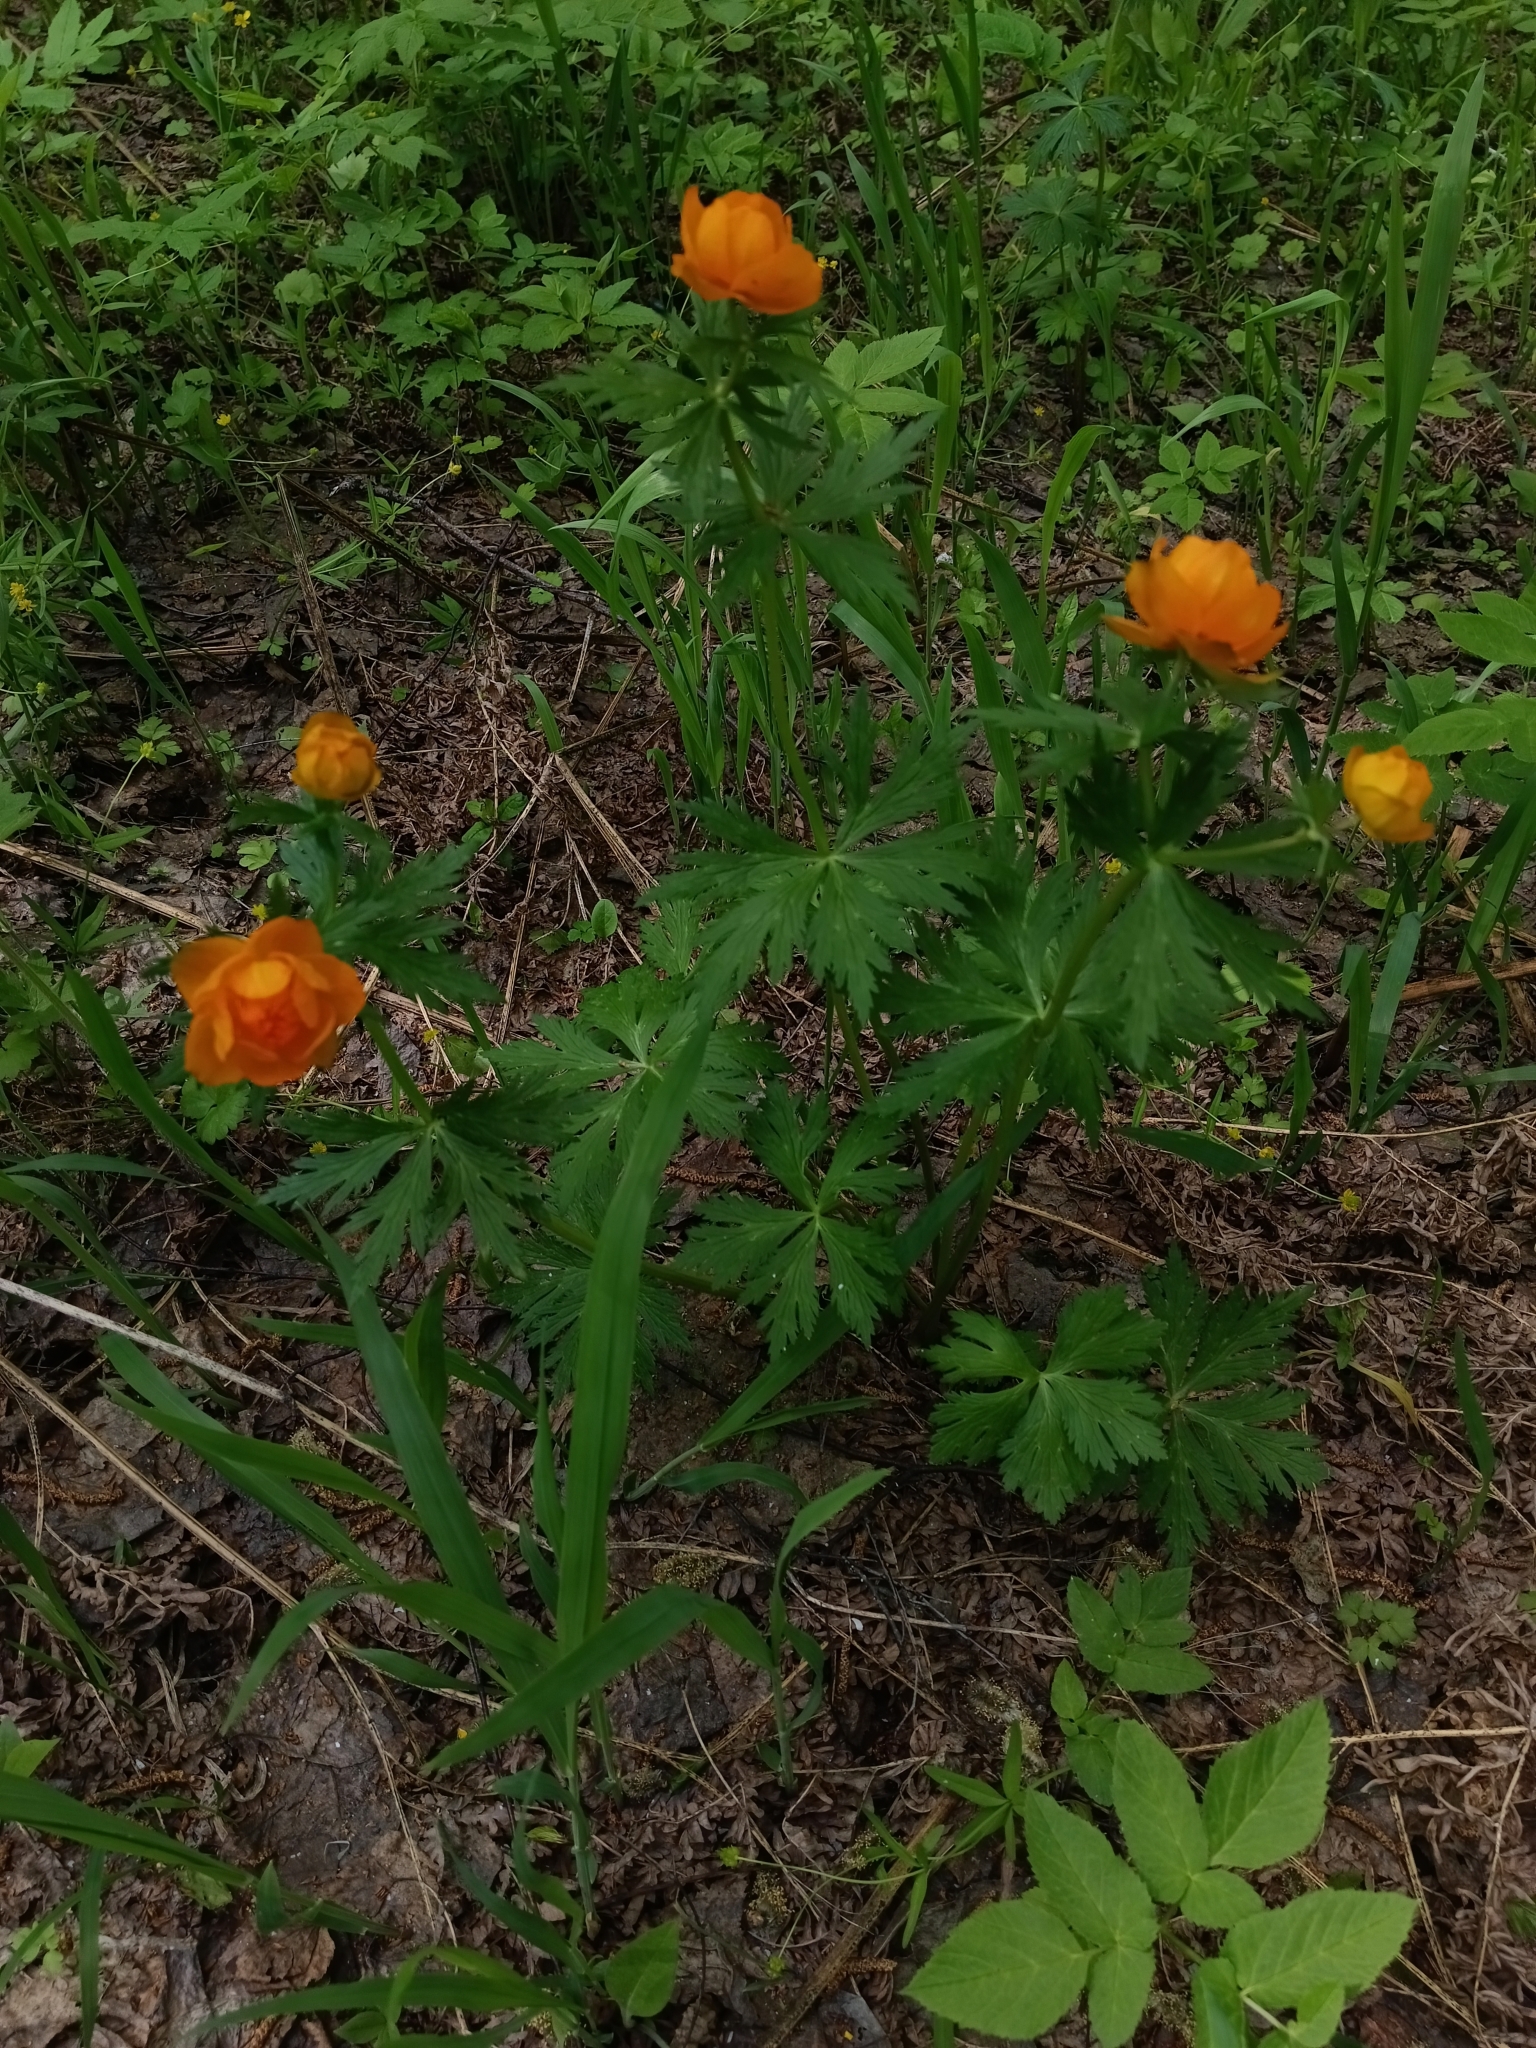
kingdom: Plantae
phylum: Tracheophyta
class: Magnoliopsida
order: Ranunculales
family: Ranunculaceae
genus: Trollius
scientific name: Trollius asiaticus
